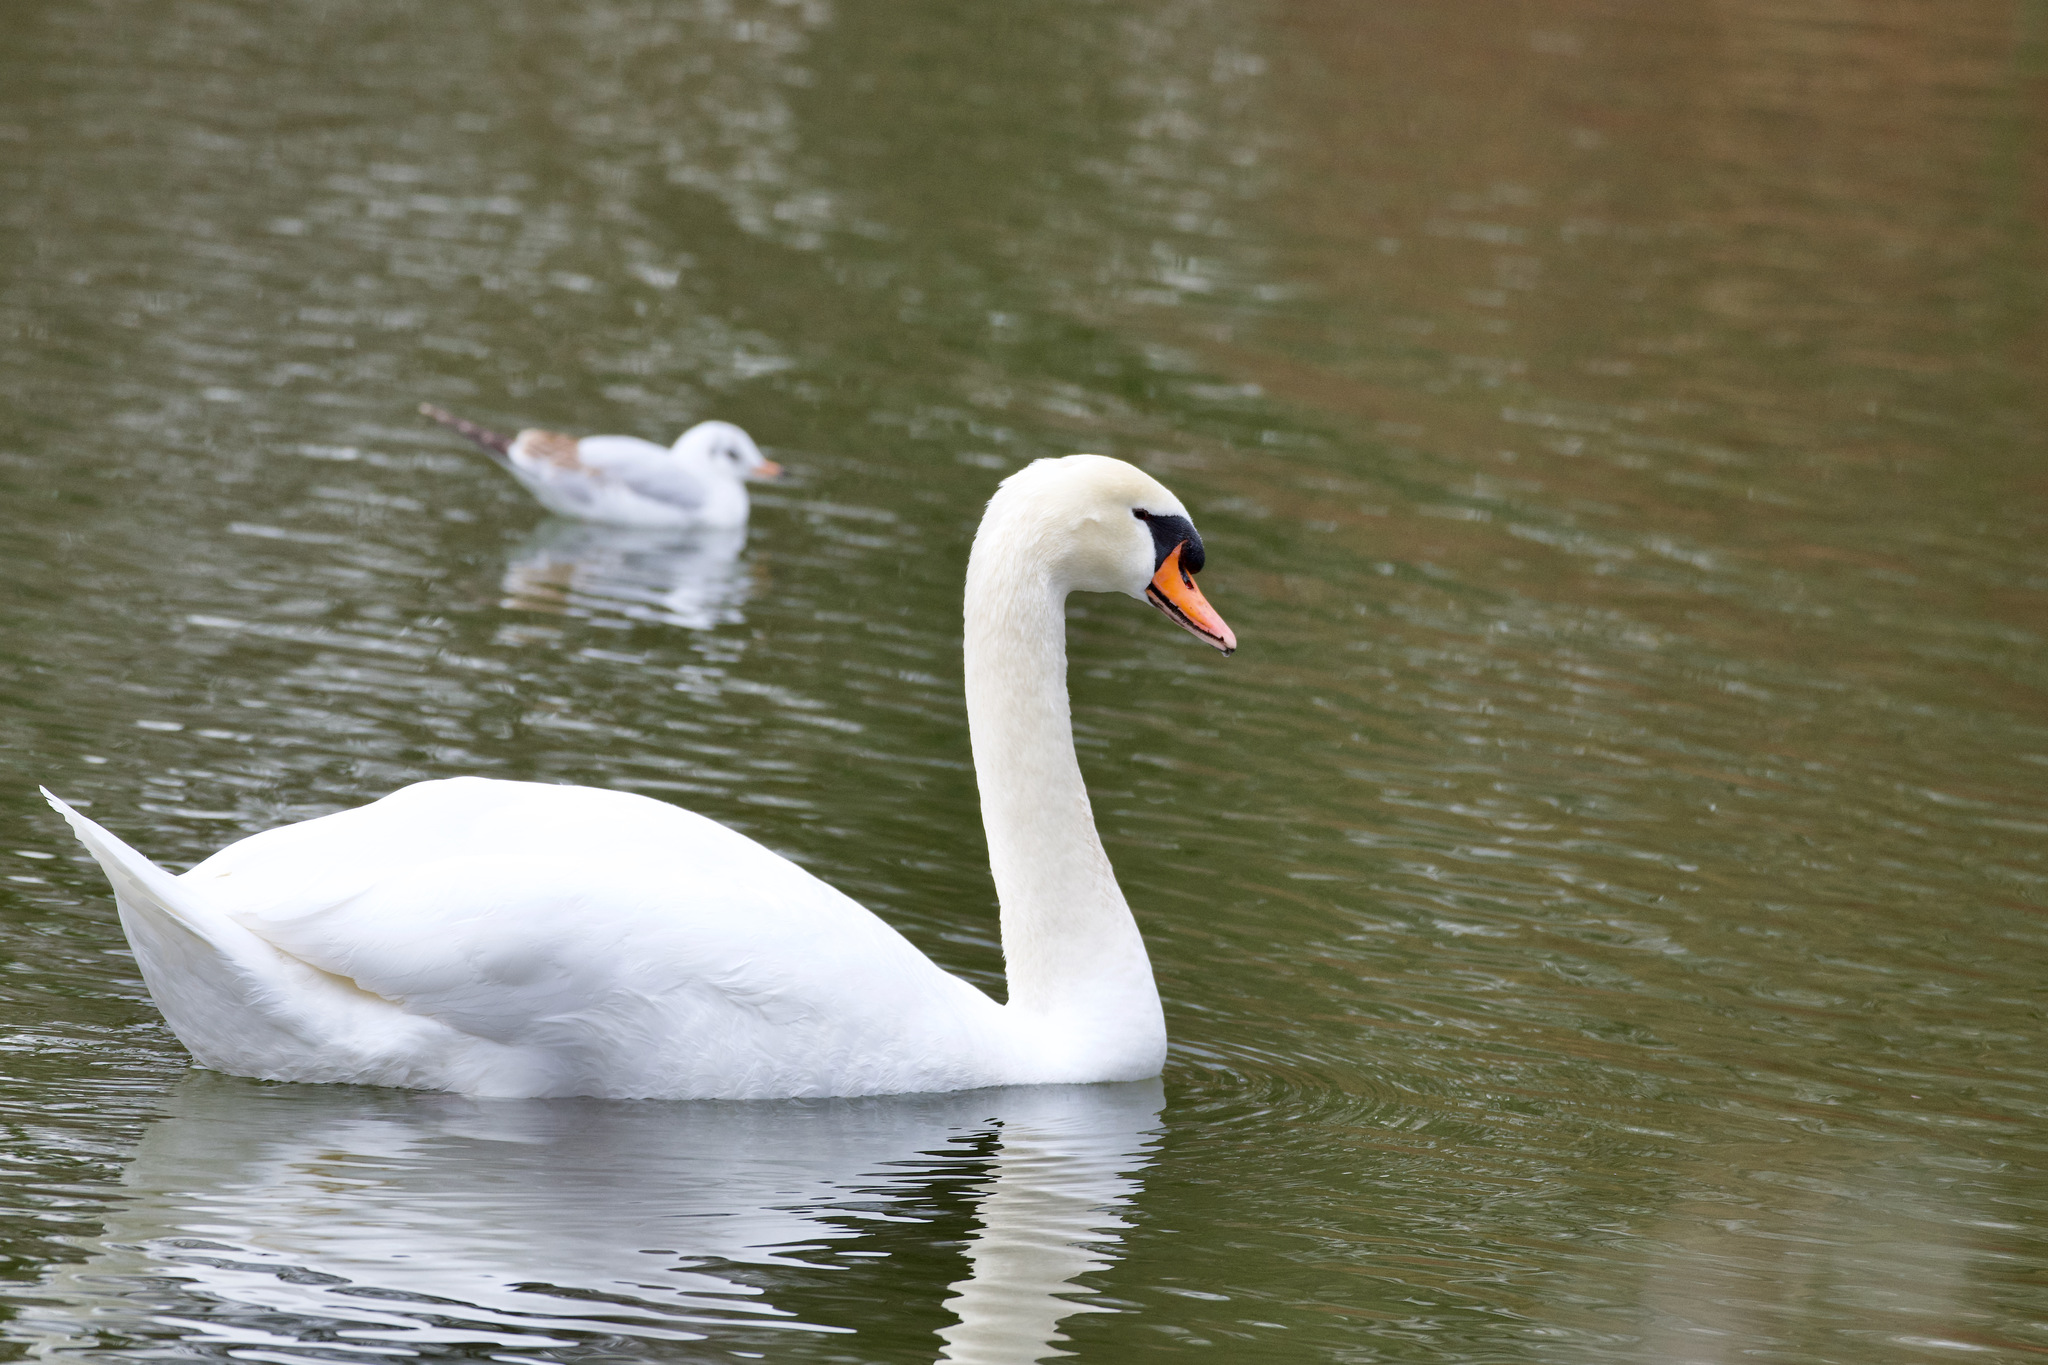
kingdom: Animalia
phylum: Chordata
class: Aves
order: Anseriformes
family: Anatidae
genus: Cygnus
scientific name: Cygnus olor
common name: Mute swan
